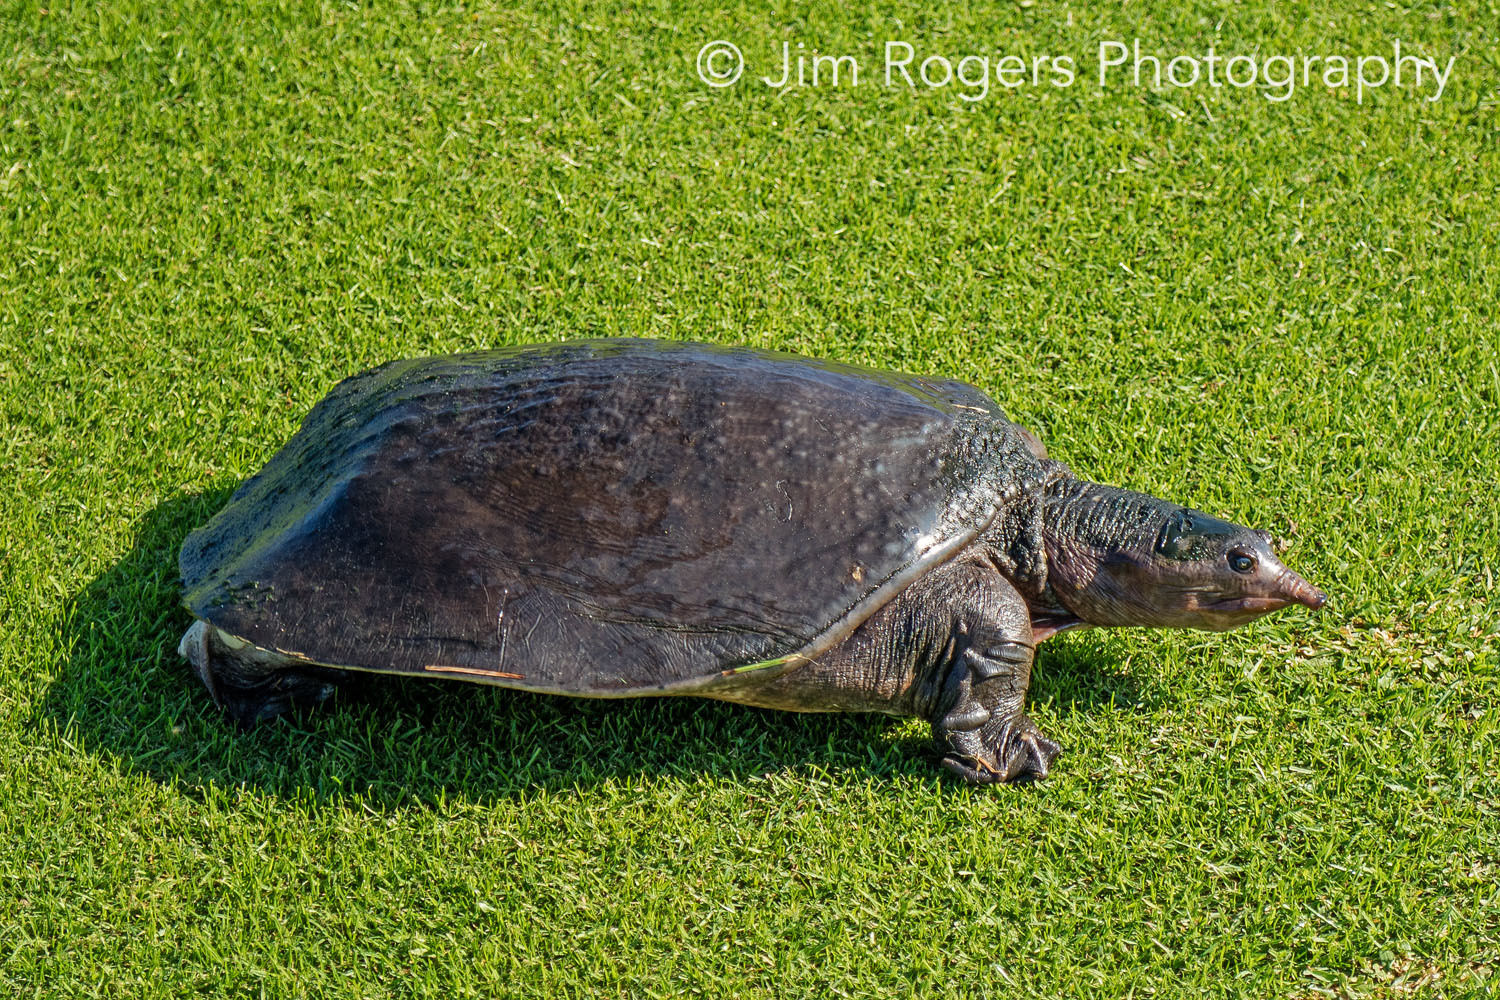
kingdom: Animalia
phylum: Chordata
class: Testudines
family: Trionychidae
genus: Apalone
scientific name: Apalone ferox
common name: Florida softshell turtle
